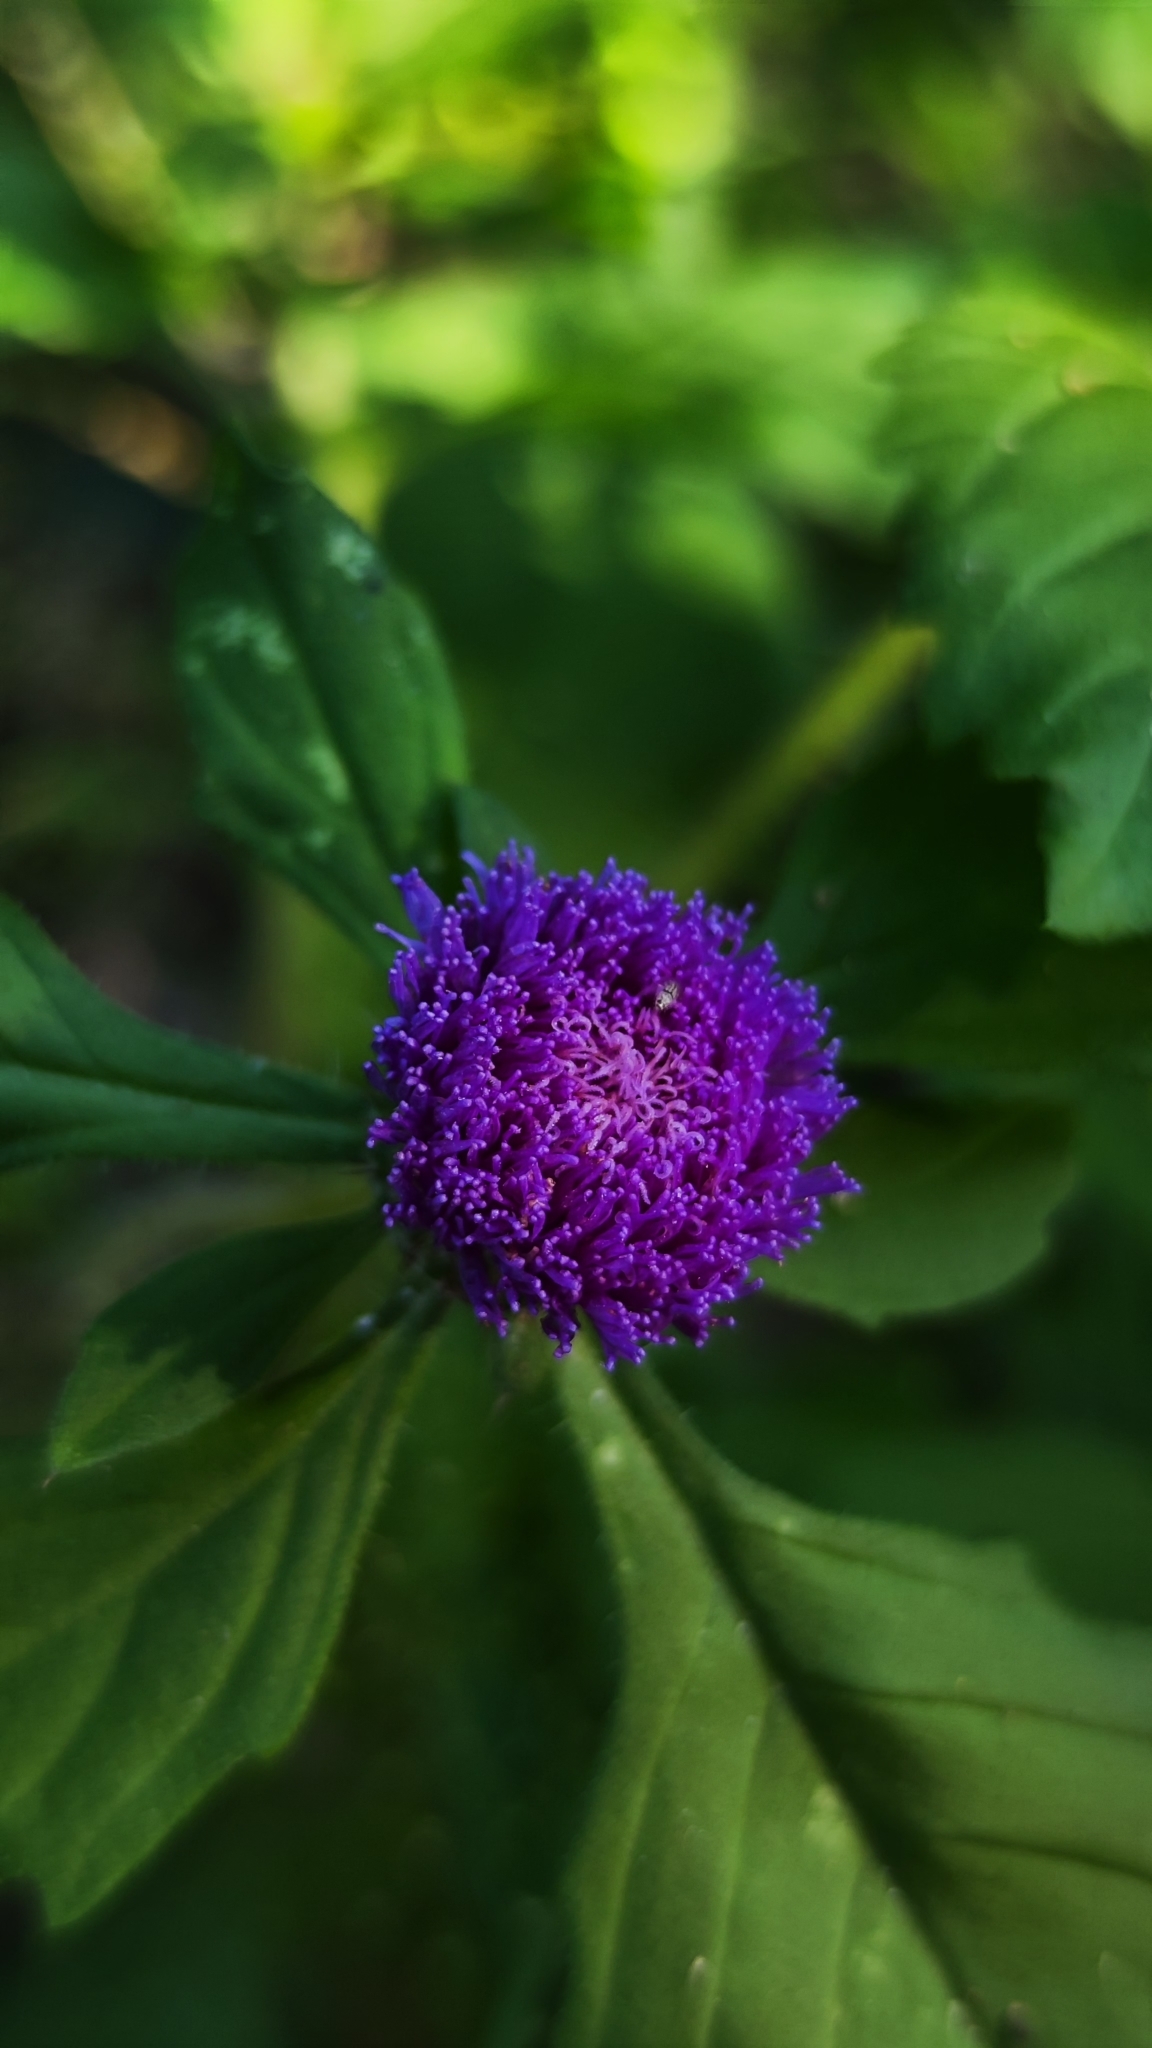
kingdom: Plantae
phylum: Tracheophyta
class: Magnoliopsida
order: Asterales
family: Asteraceae
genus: Centratherum
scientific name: Centratherum punctatum
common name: Larkdaisy
